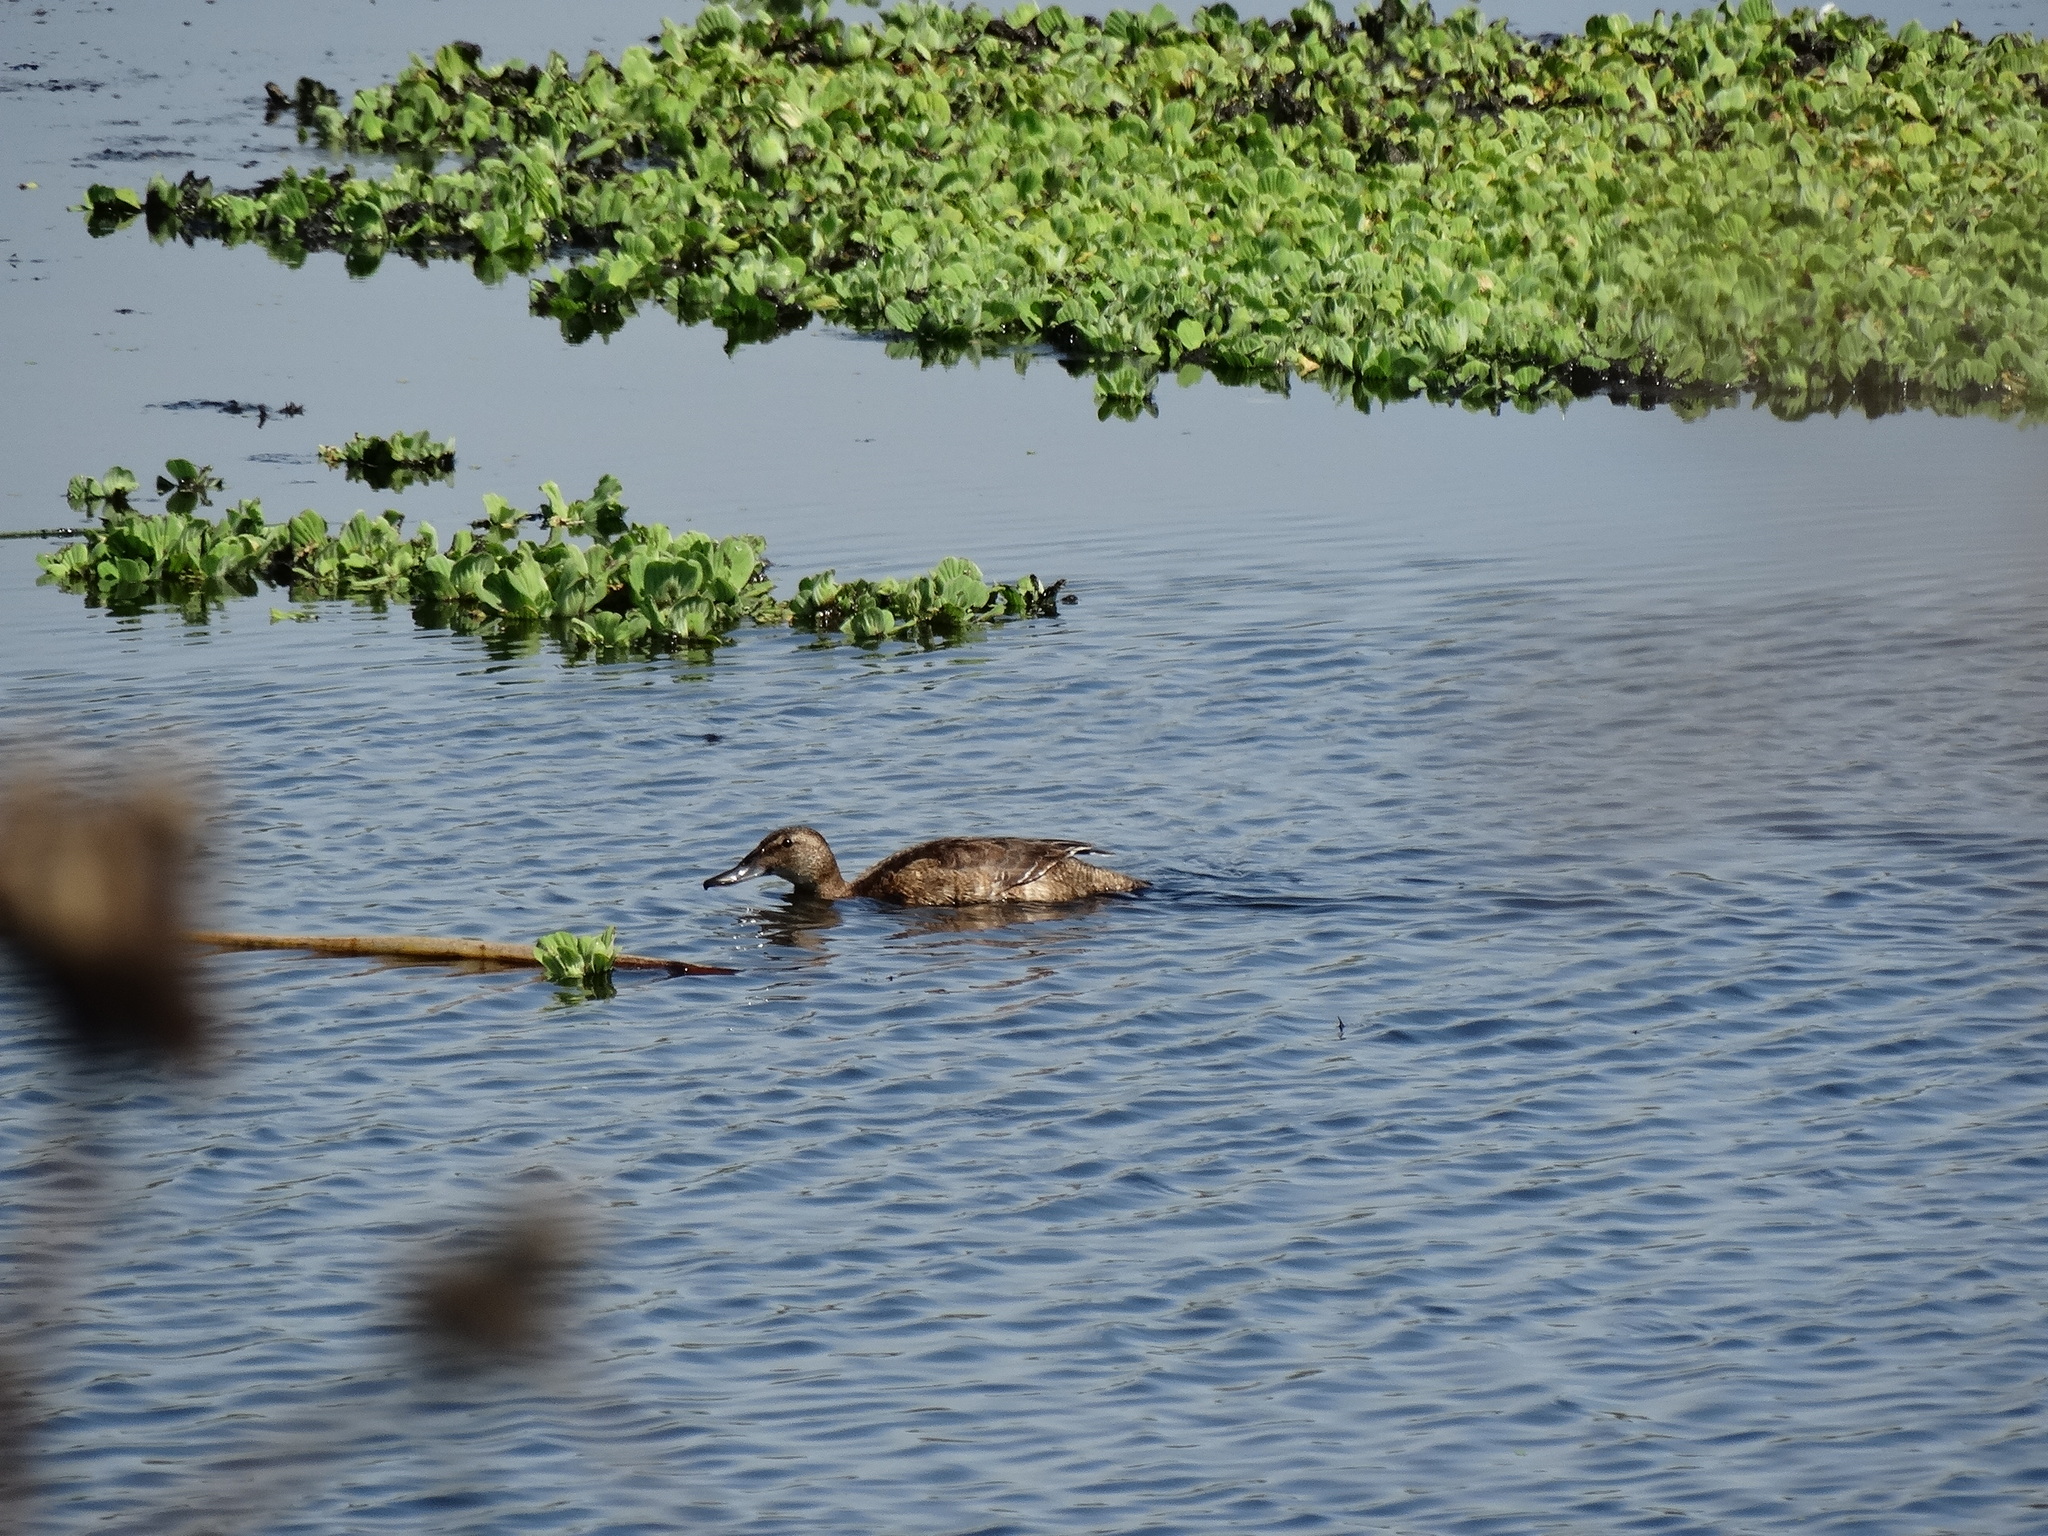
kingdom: Animalia
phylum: Chordata
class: Aves
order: Anseriformes
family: Anatidae
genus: Heteronetta
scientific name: Heteronetta atricapilla
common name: Black-headed duck
